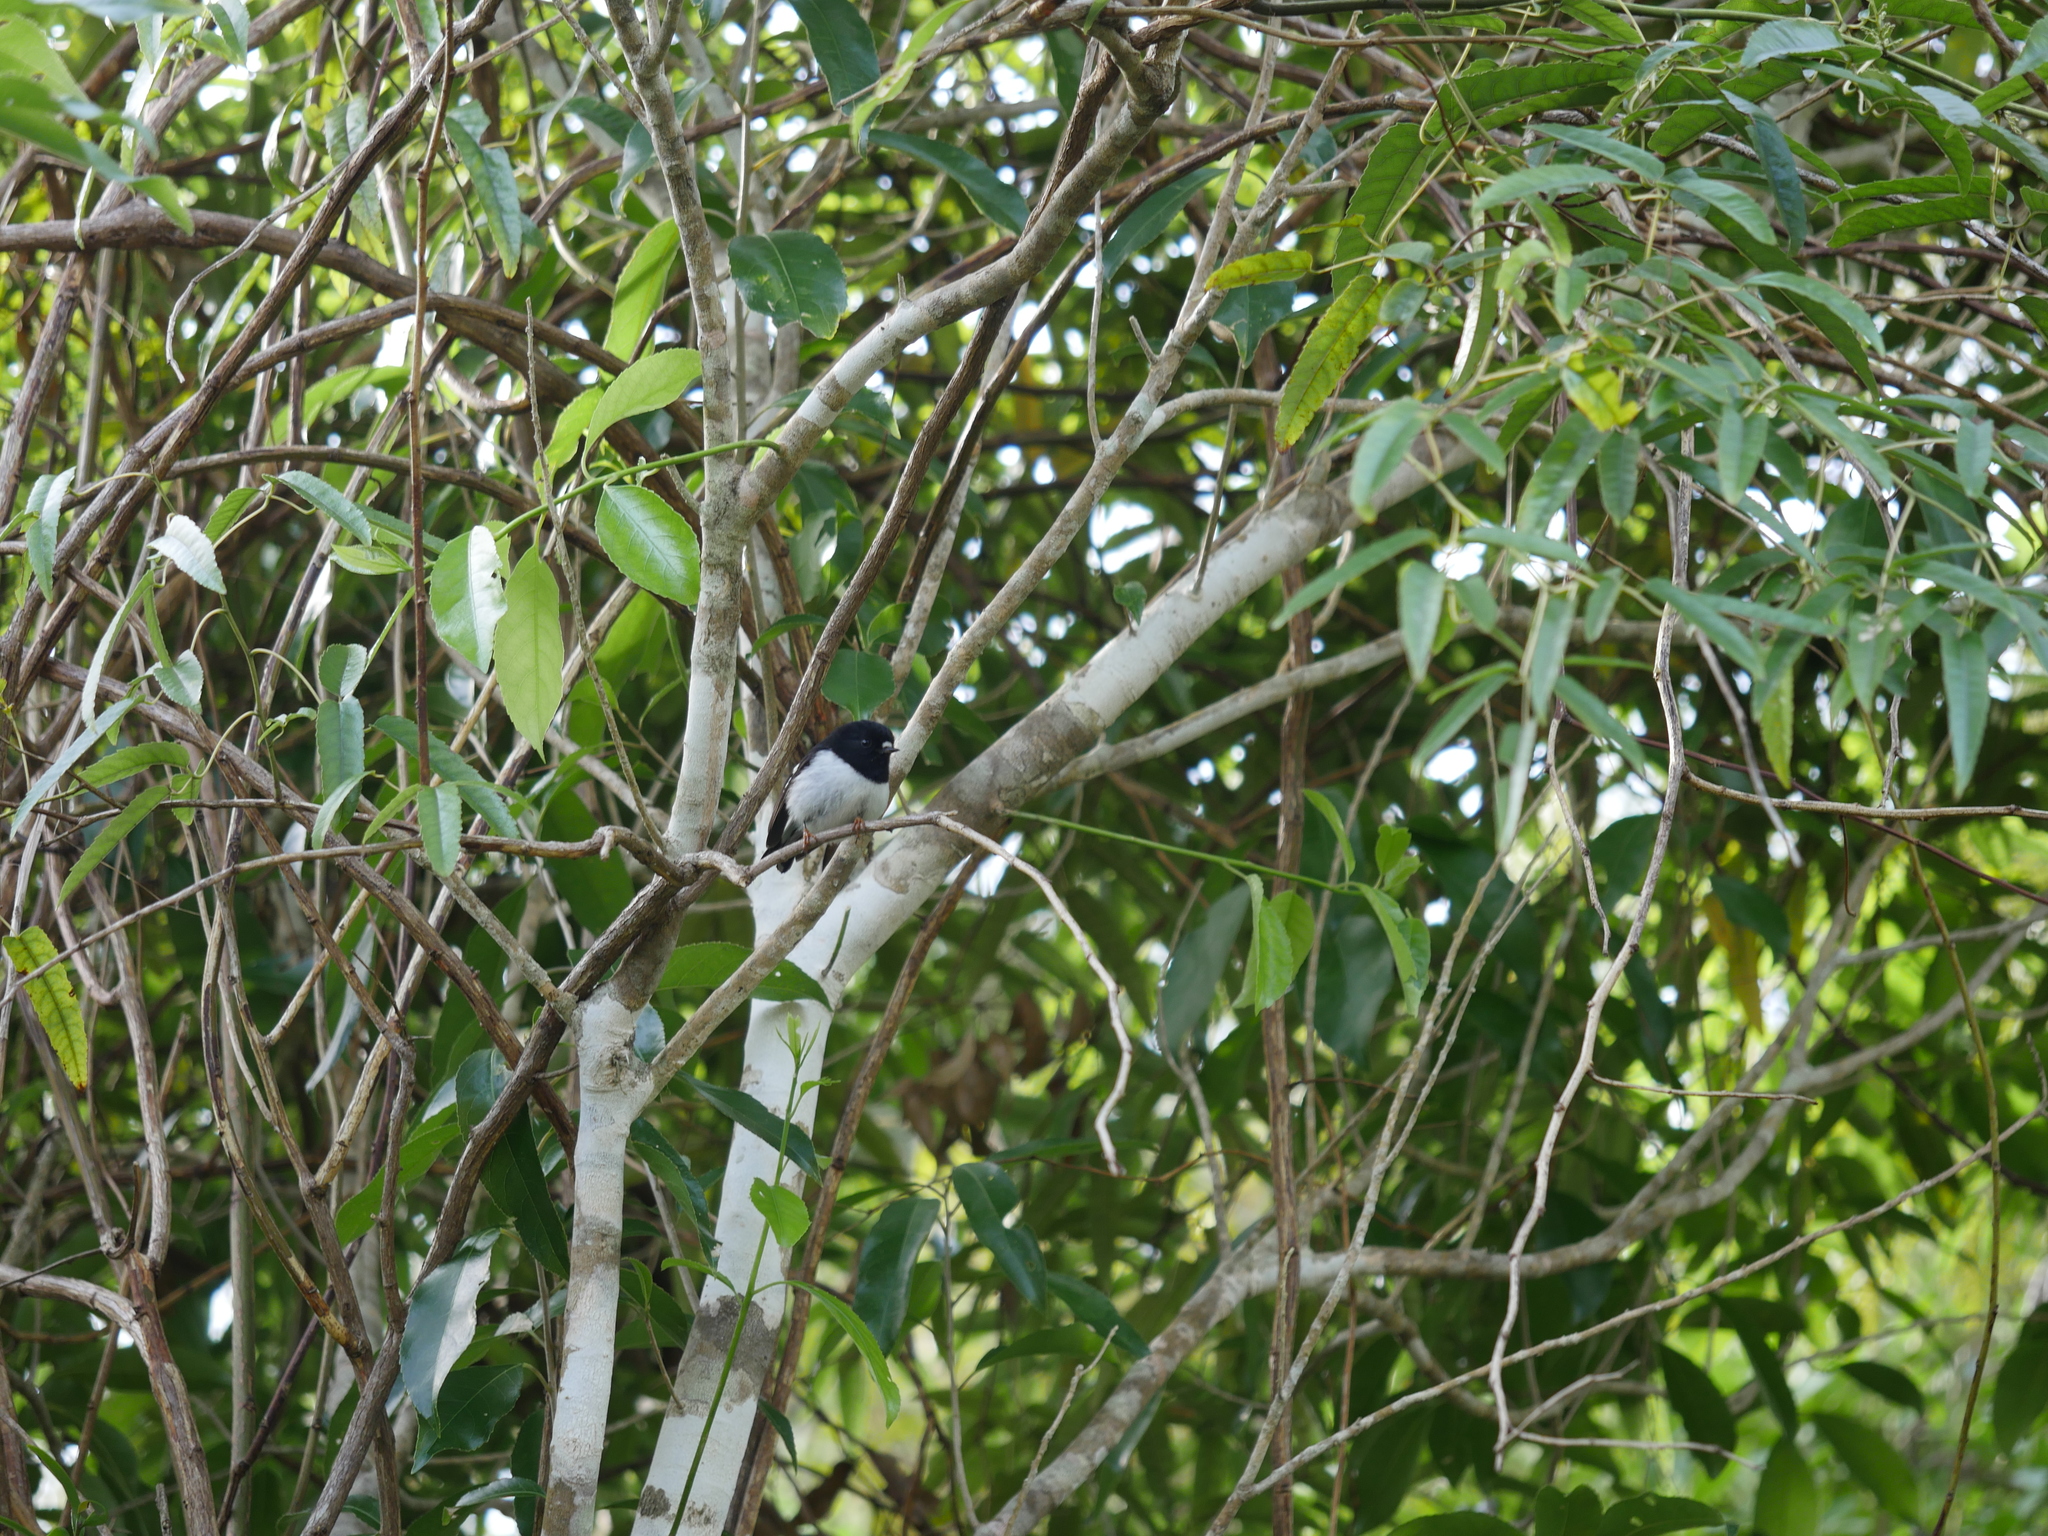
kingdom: Animalia
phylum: Chordata
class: Aves
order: Passeriformes
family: Petroicidae
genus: Petroica
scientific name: Petroica macrocephala
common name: Tomtit
